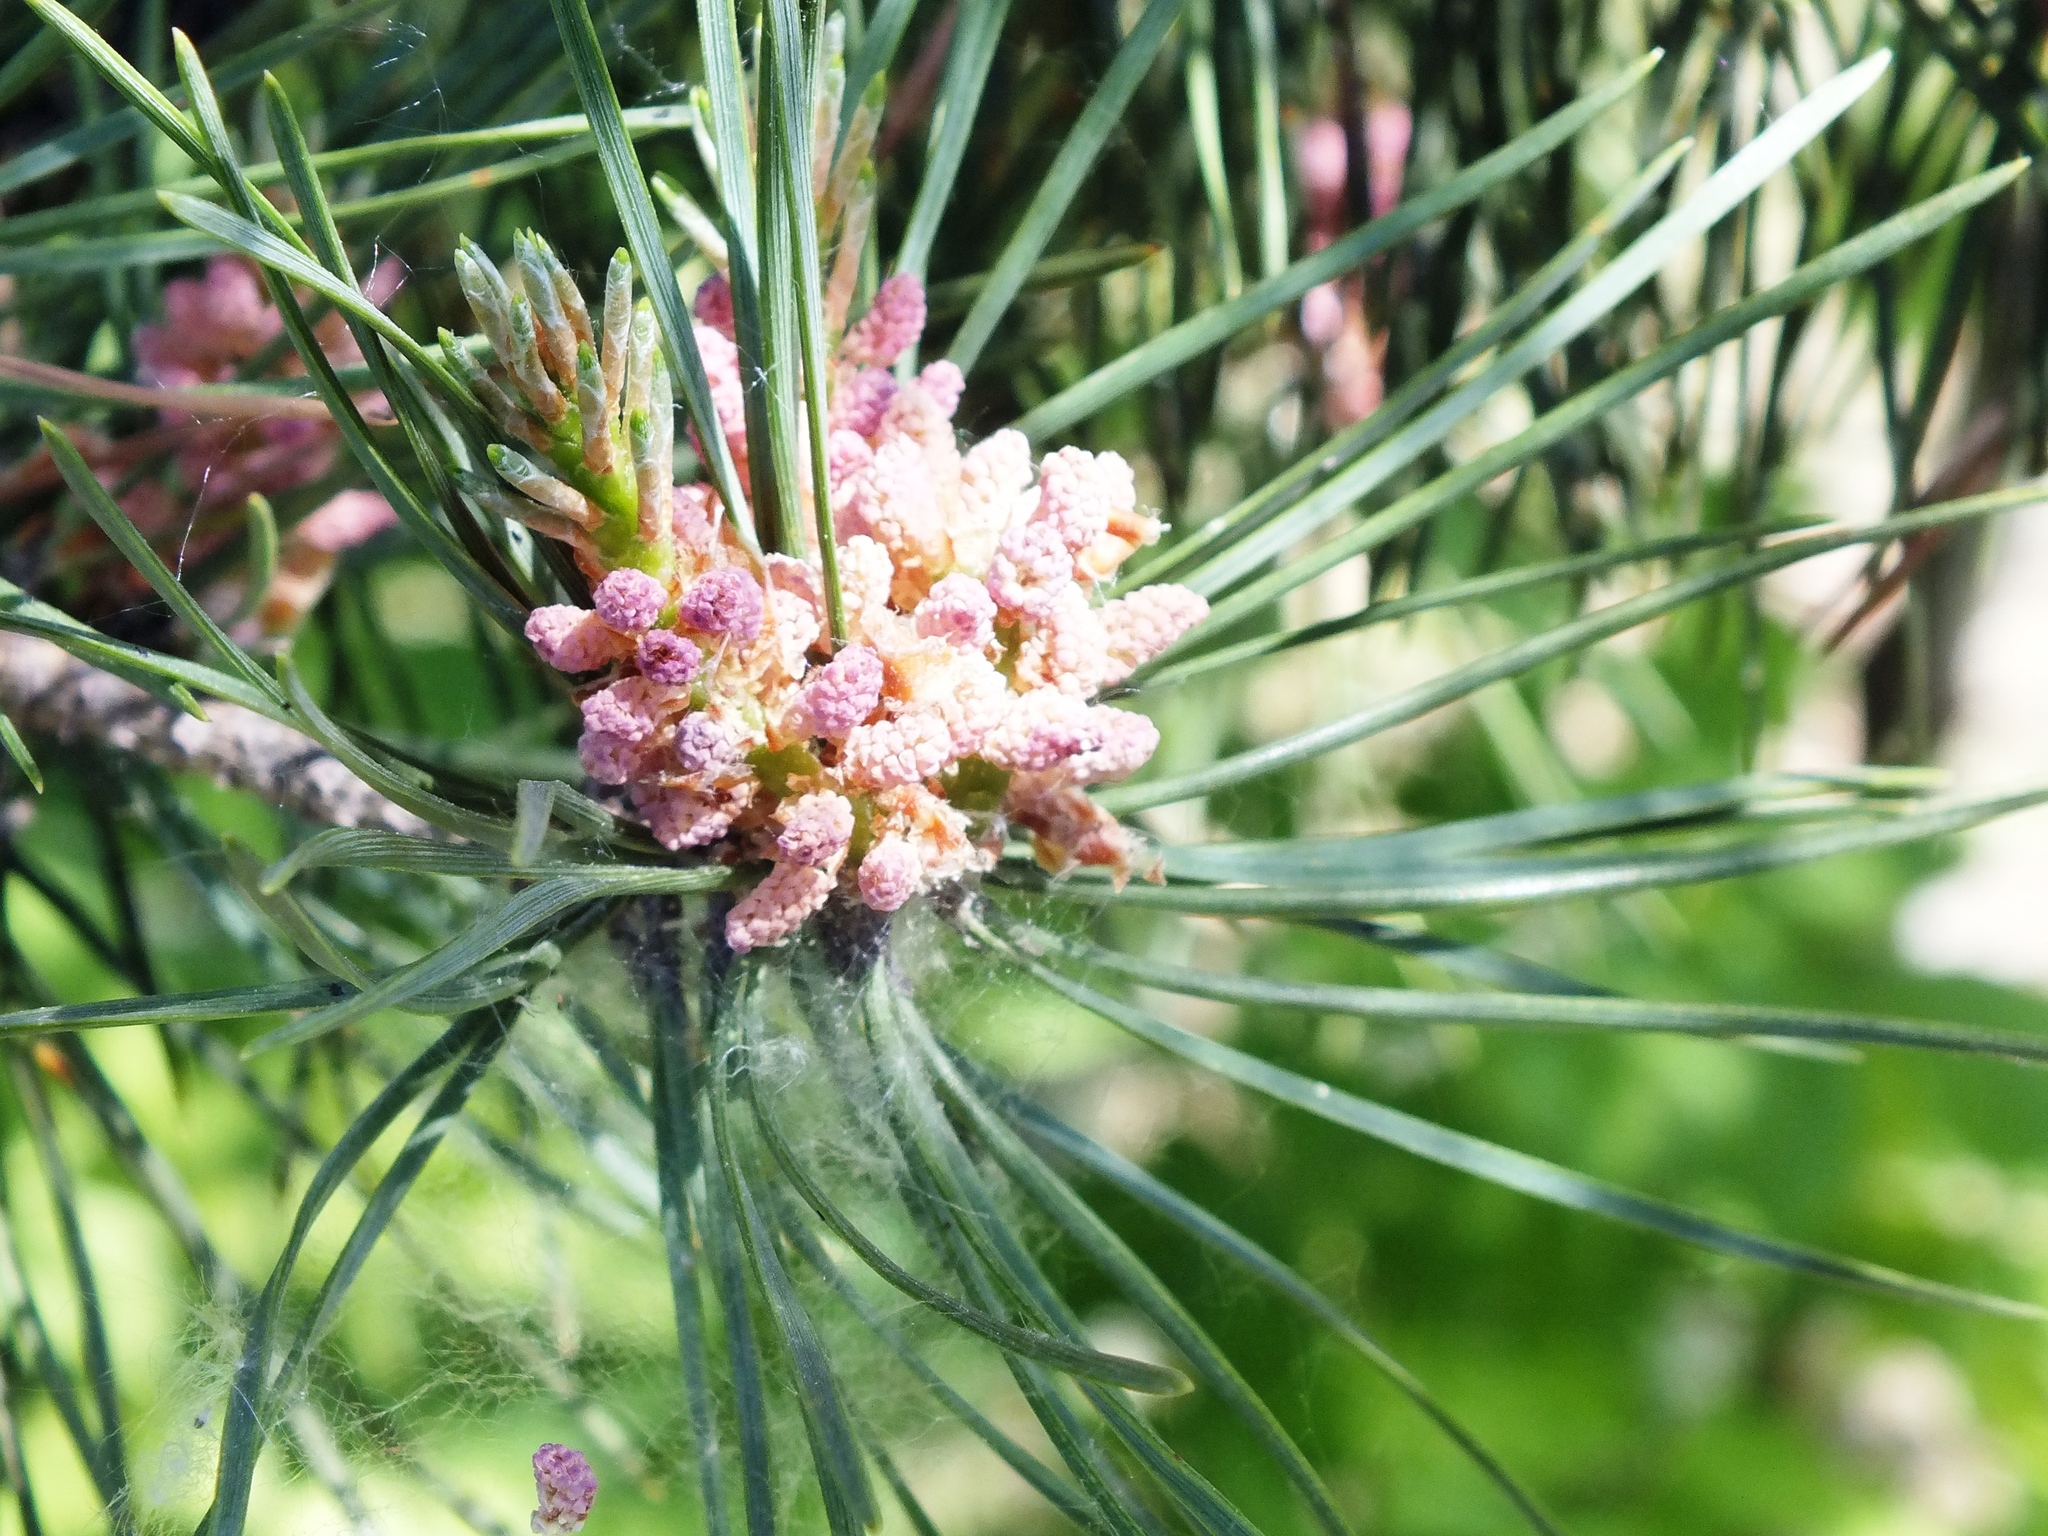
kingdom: Plantae
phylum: Tracheophyta
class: Pinopsida
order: Pinales
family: Pinaceae
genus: Pinus
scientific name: Pinus sylvestris
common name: Scots pine
